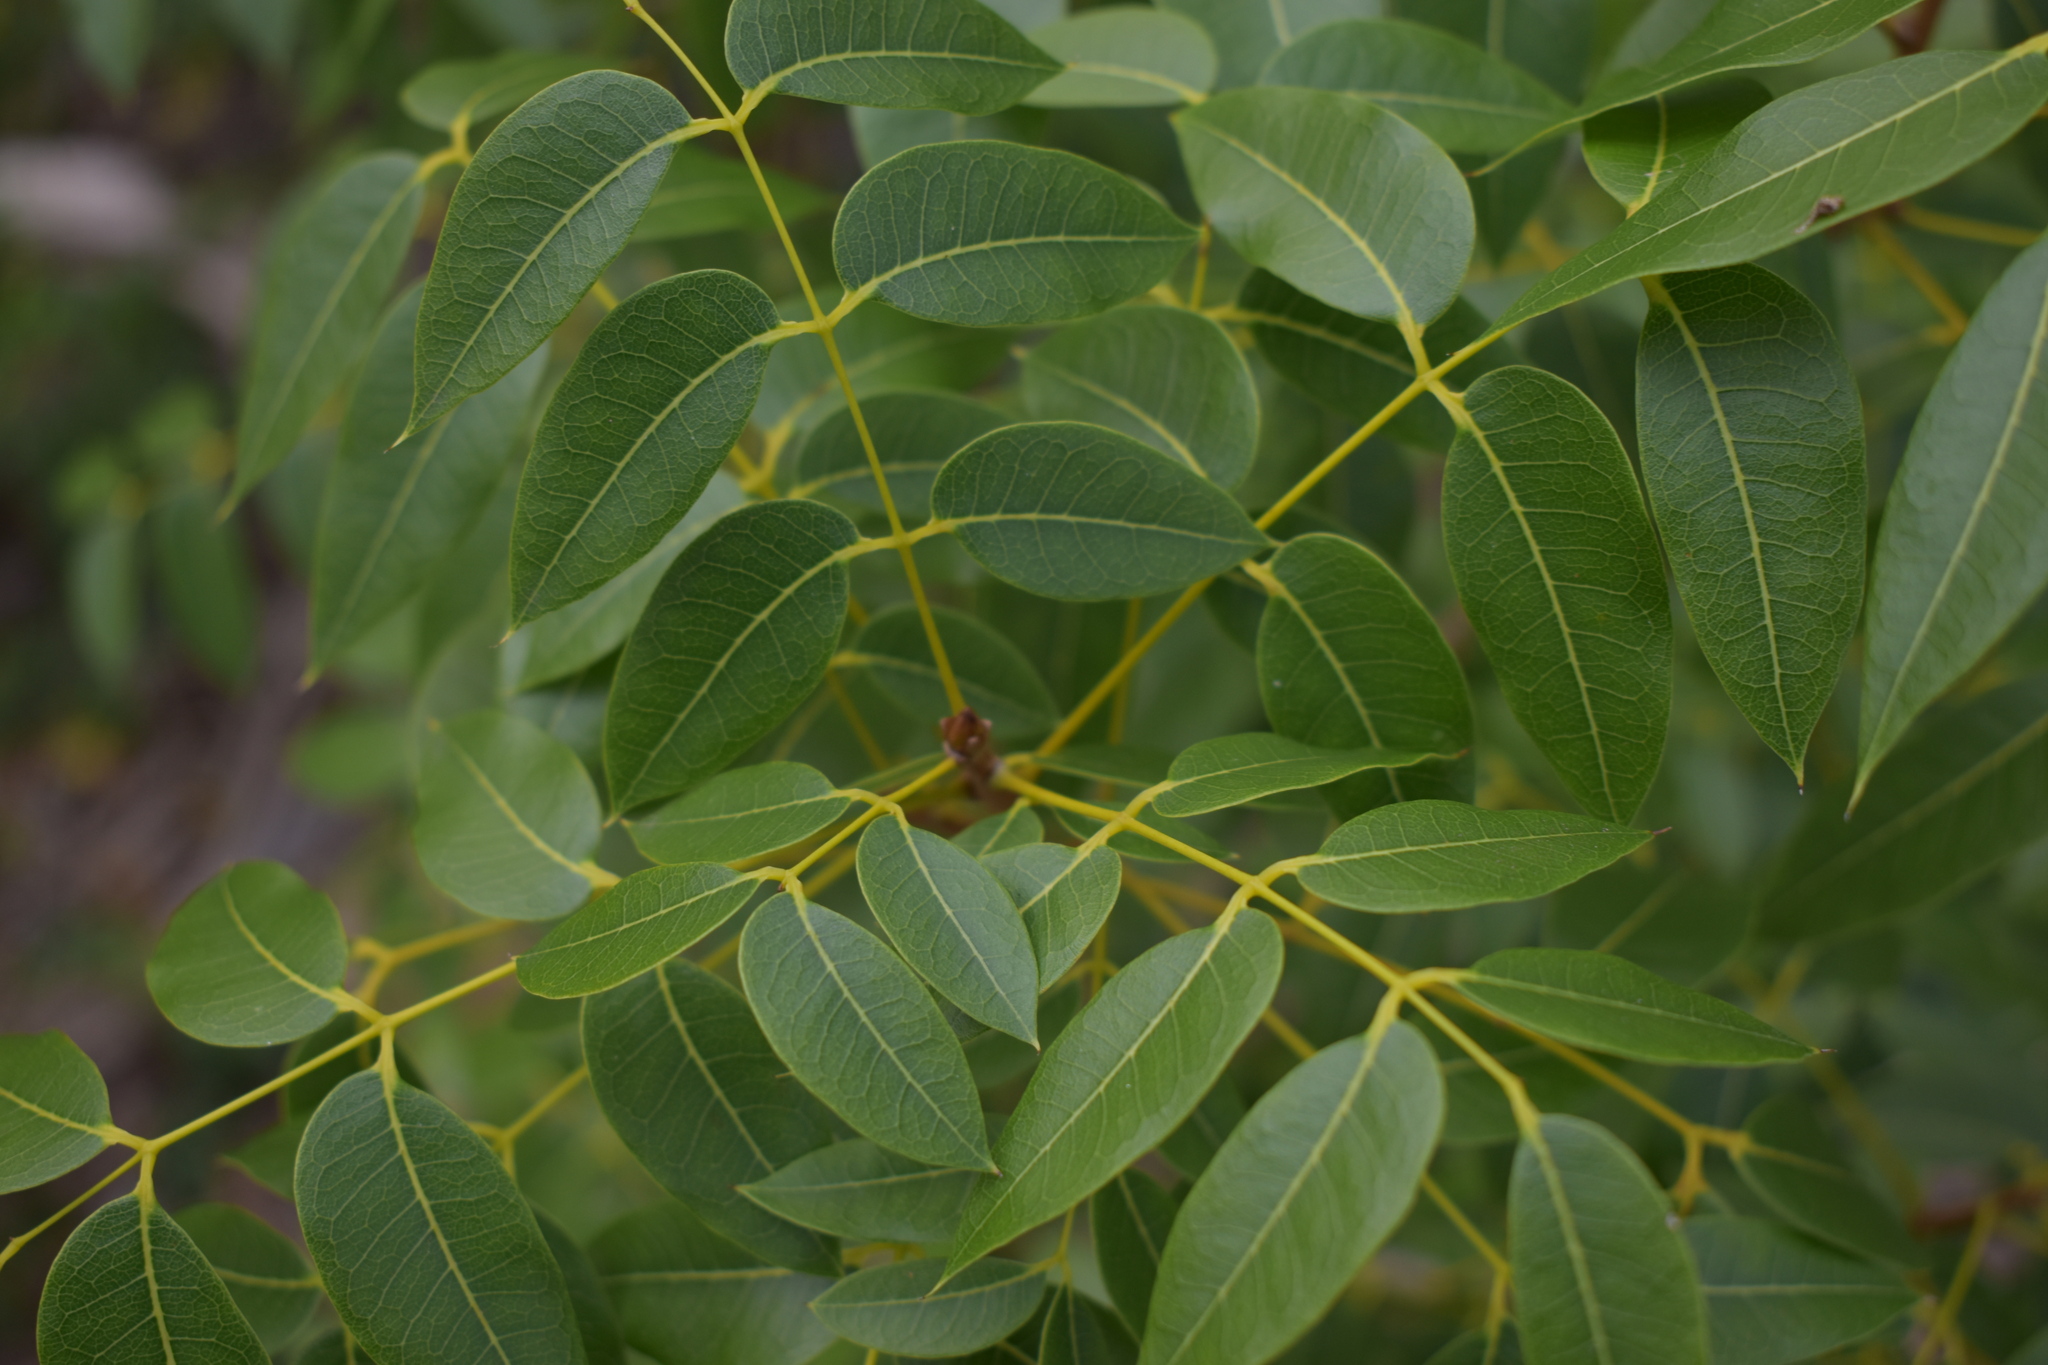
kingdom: Plantae
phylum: Tracheophyta
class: Magnoliopsida
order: Sapindales
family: Meliaceae
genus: Swietenia
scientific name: Swietenia mahagoni
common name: West indian mahogany
